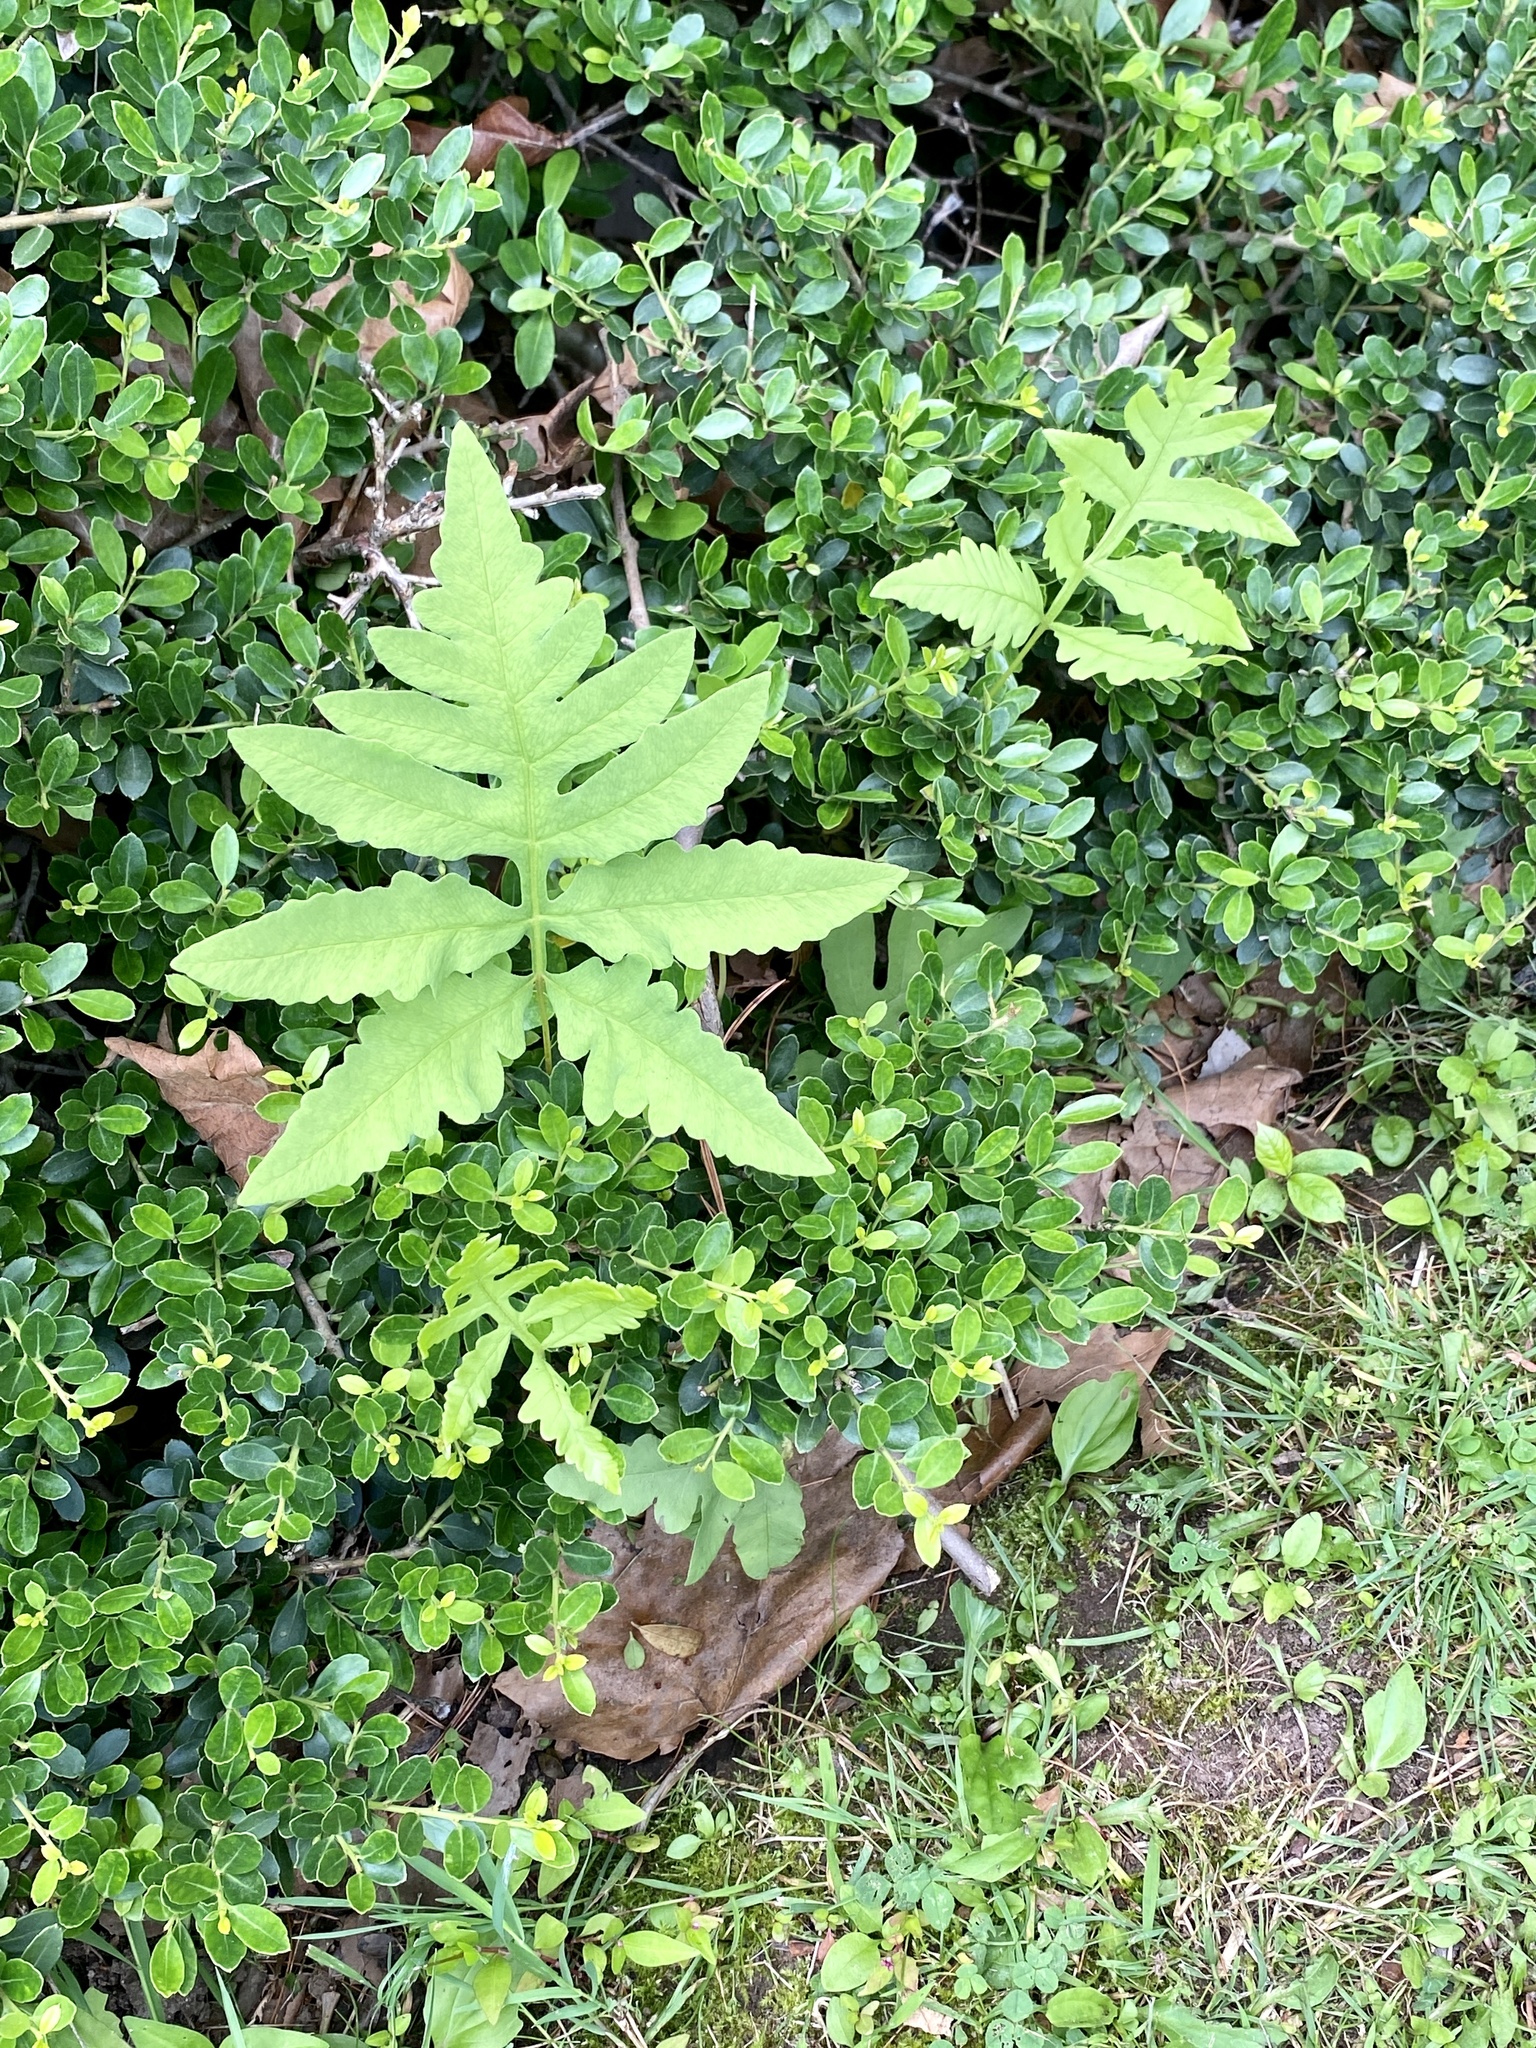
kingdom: Plantae
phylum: Tracheophyta
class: Polypodiopsida
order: Polypodiales
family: Onocleaceae
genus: Onoclea
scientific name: Onoclea sensibilis
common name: Sensitive fern
